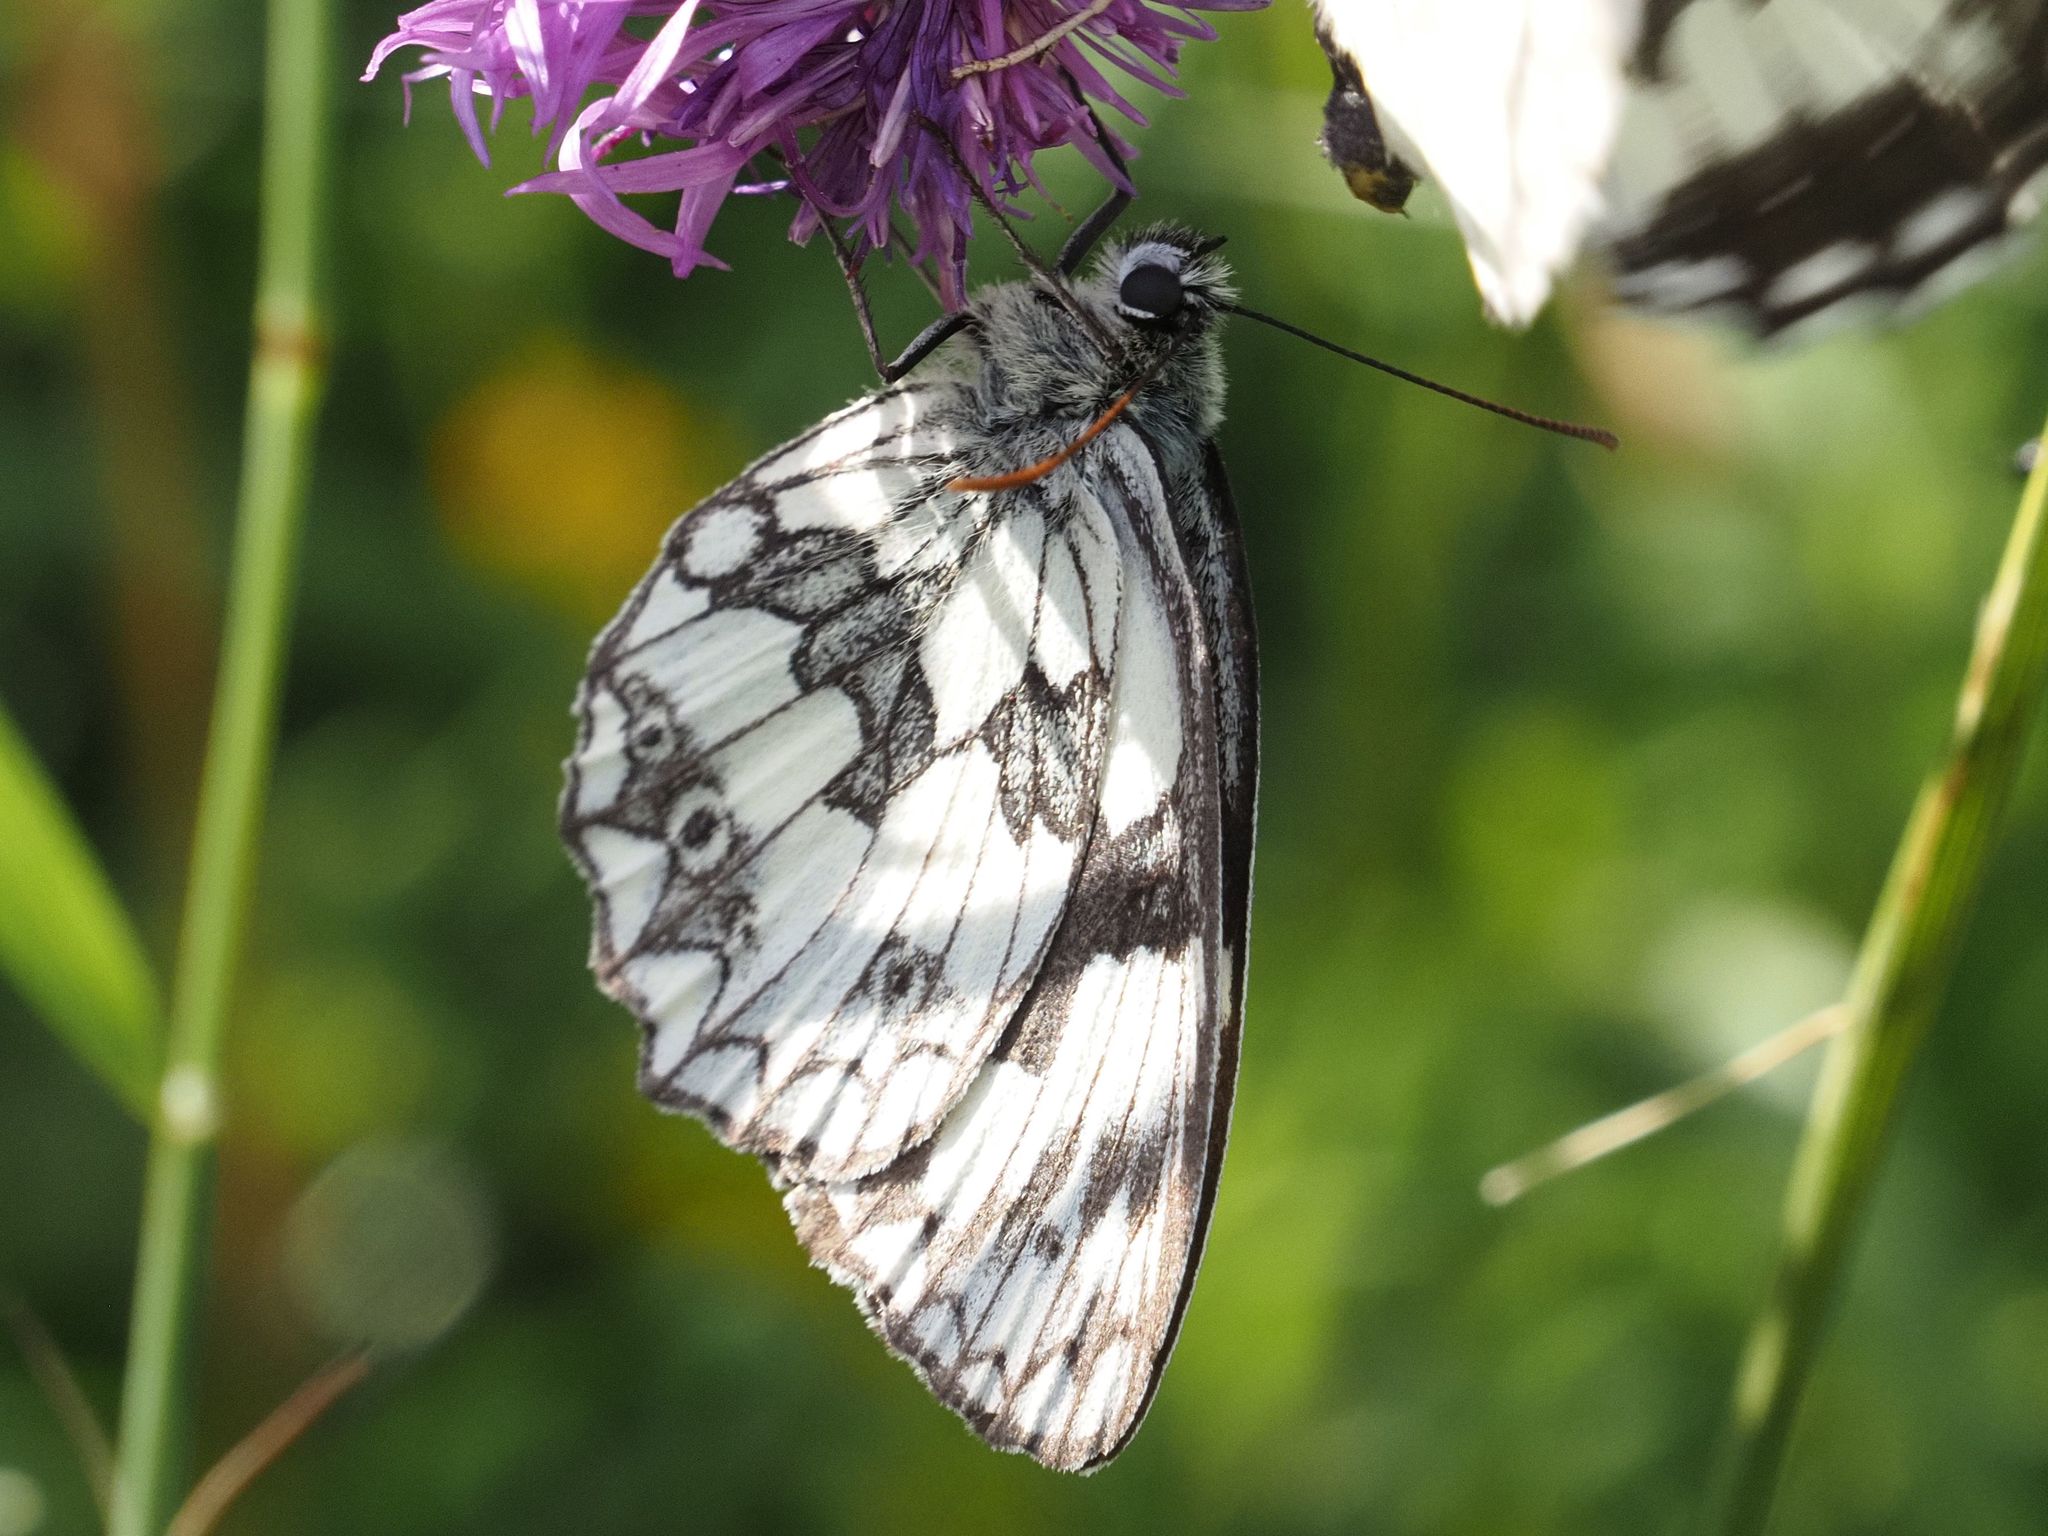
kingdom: Animalia
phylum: Arthropoda
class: Insecta
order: Lepidoptera
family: Nymphalidae
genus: Melanargia
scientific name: Melanargia galathea
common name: Marbled white
